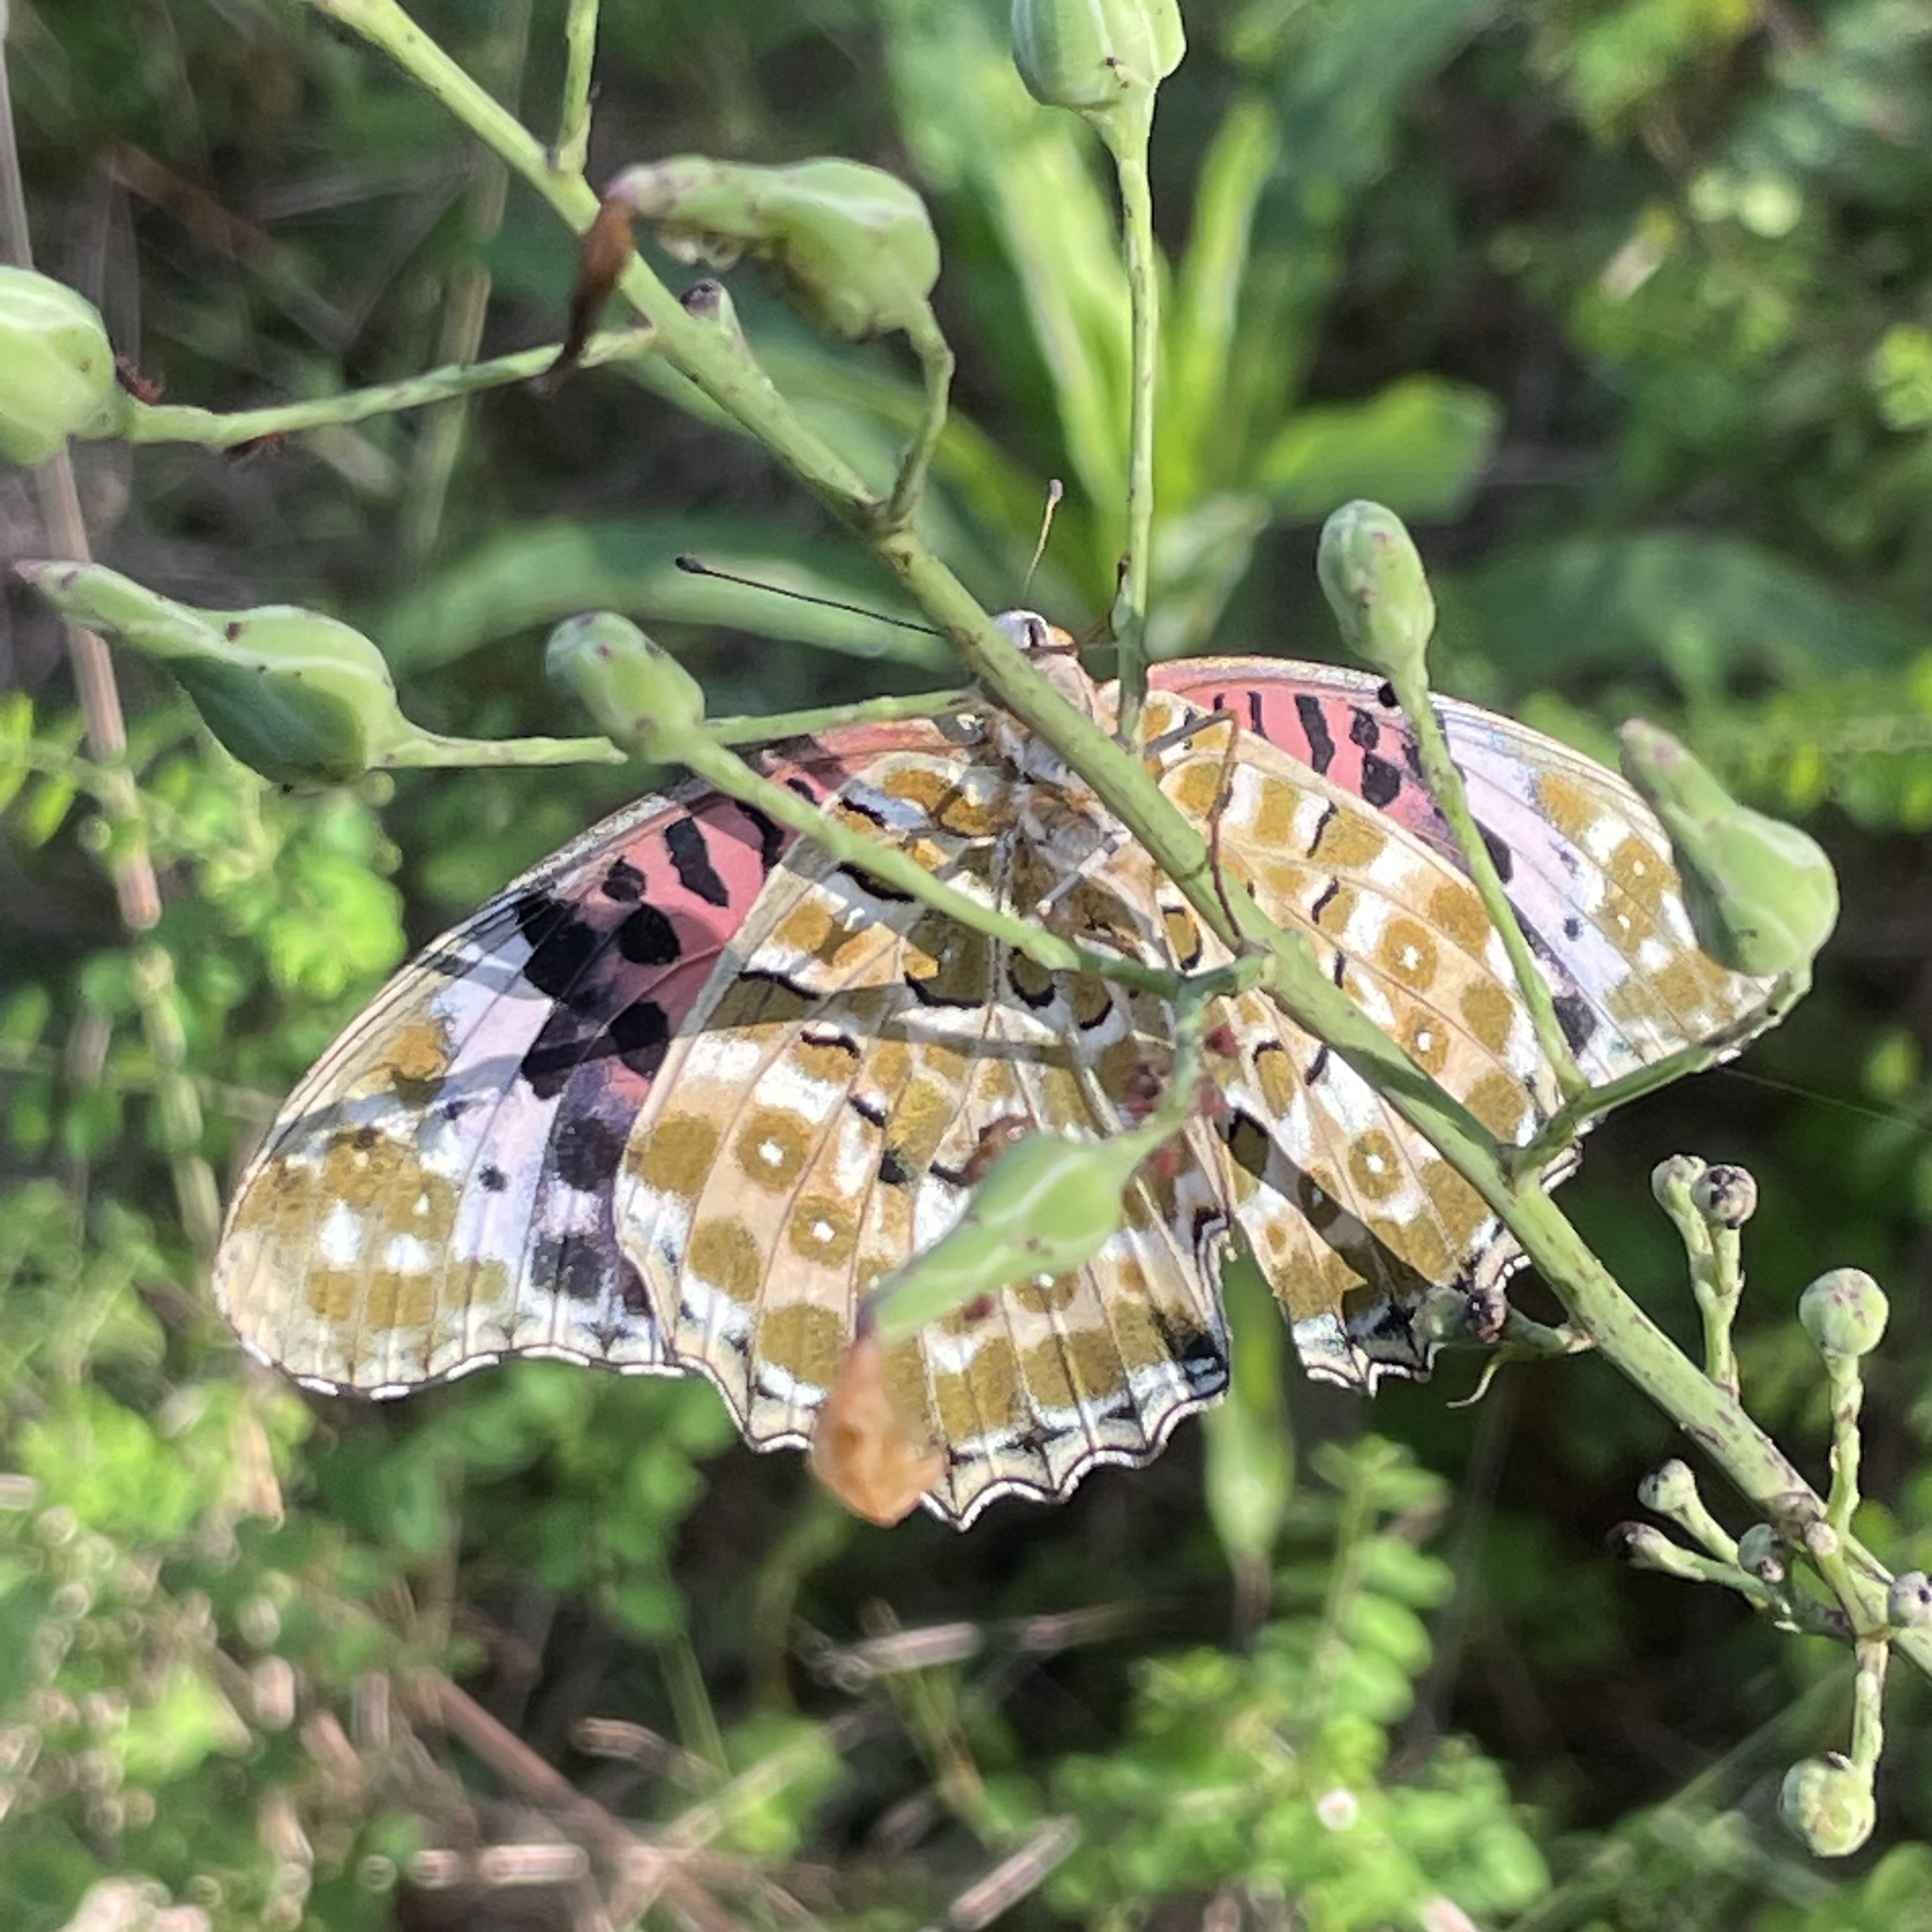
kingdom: Animalia
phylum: Arthropoda
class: Insecta
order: Lepidoptera
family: Nymphalidae
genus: Argynnis
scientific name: Argynnis hyperbius
